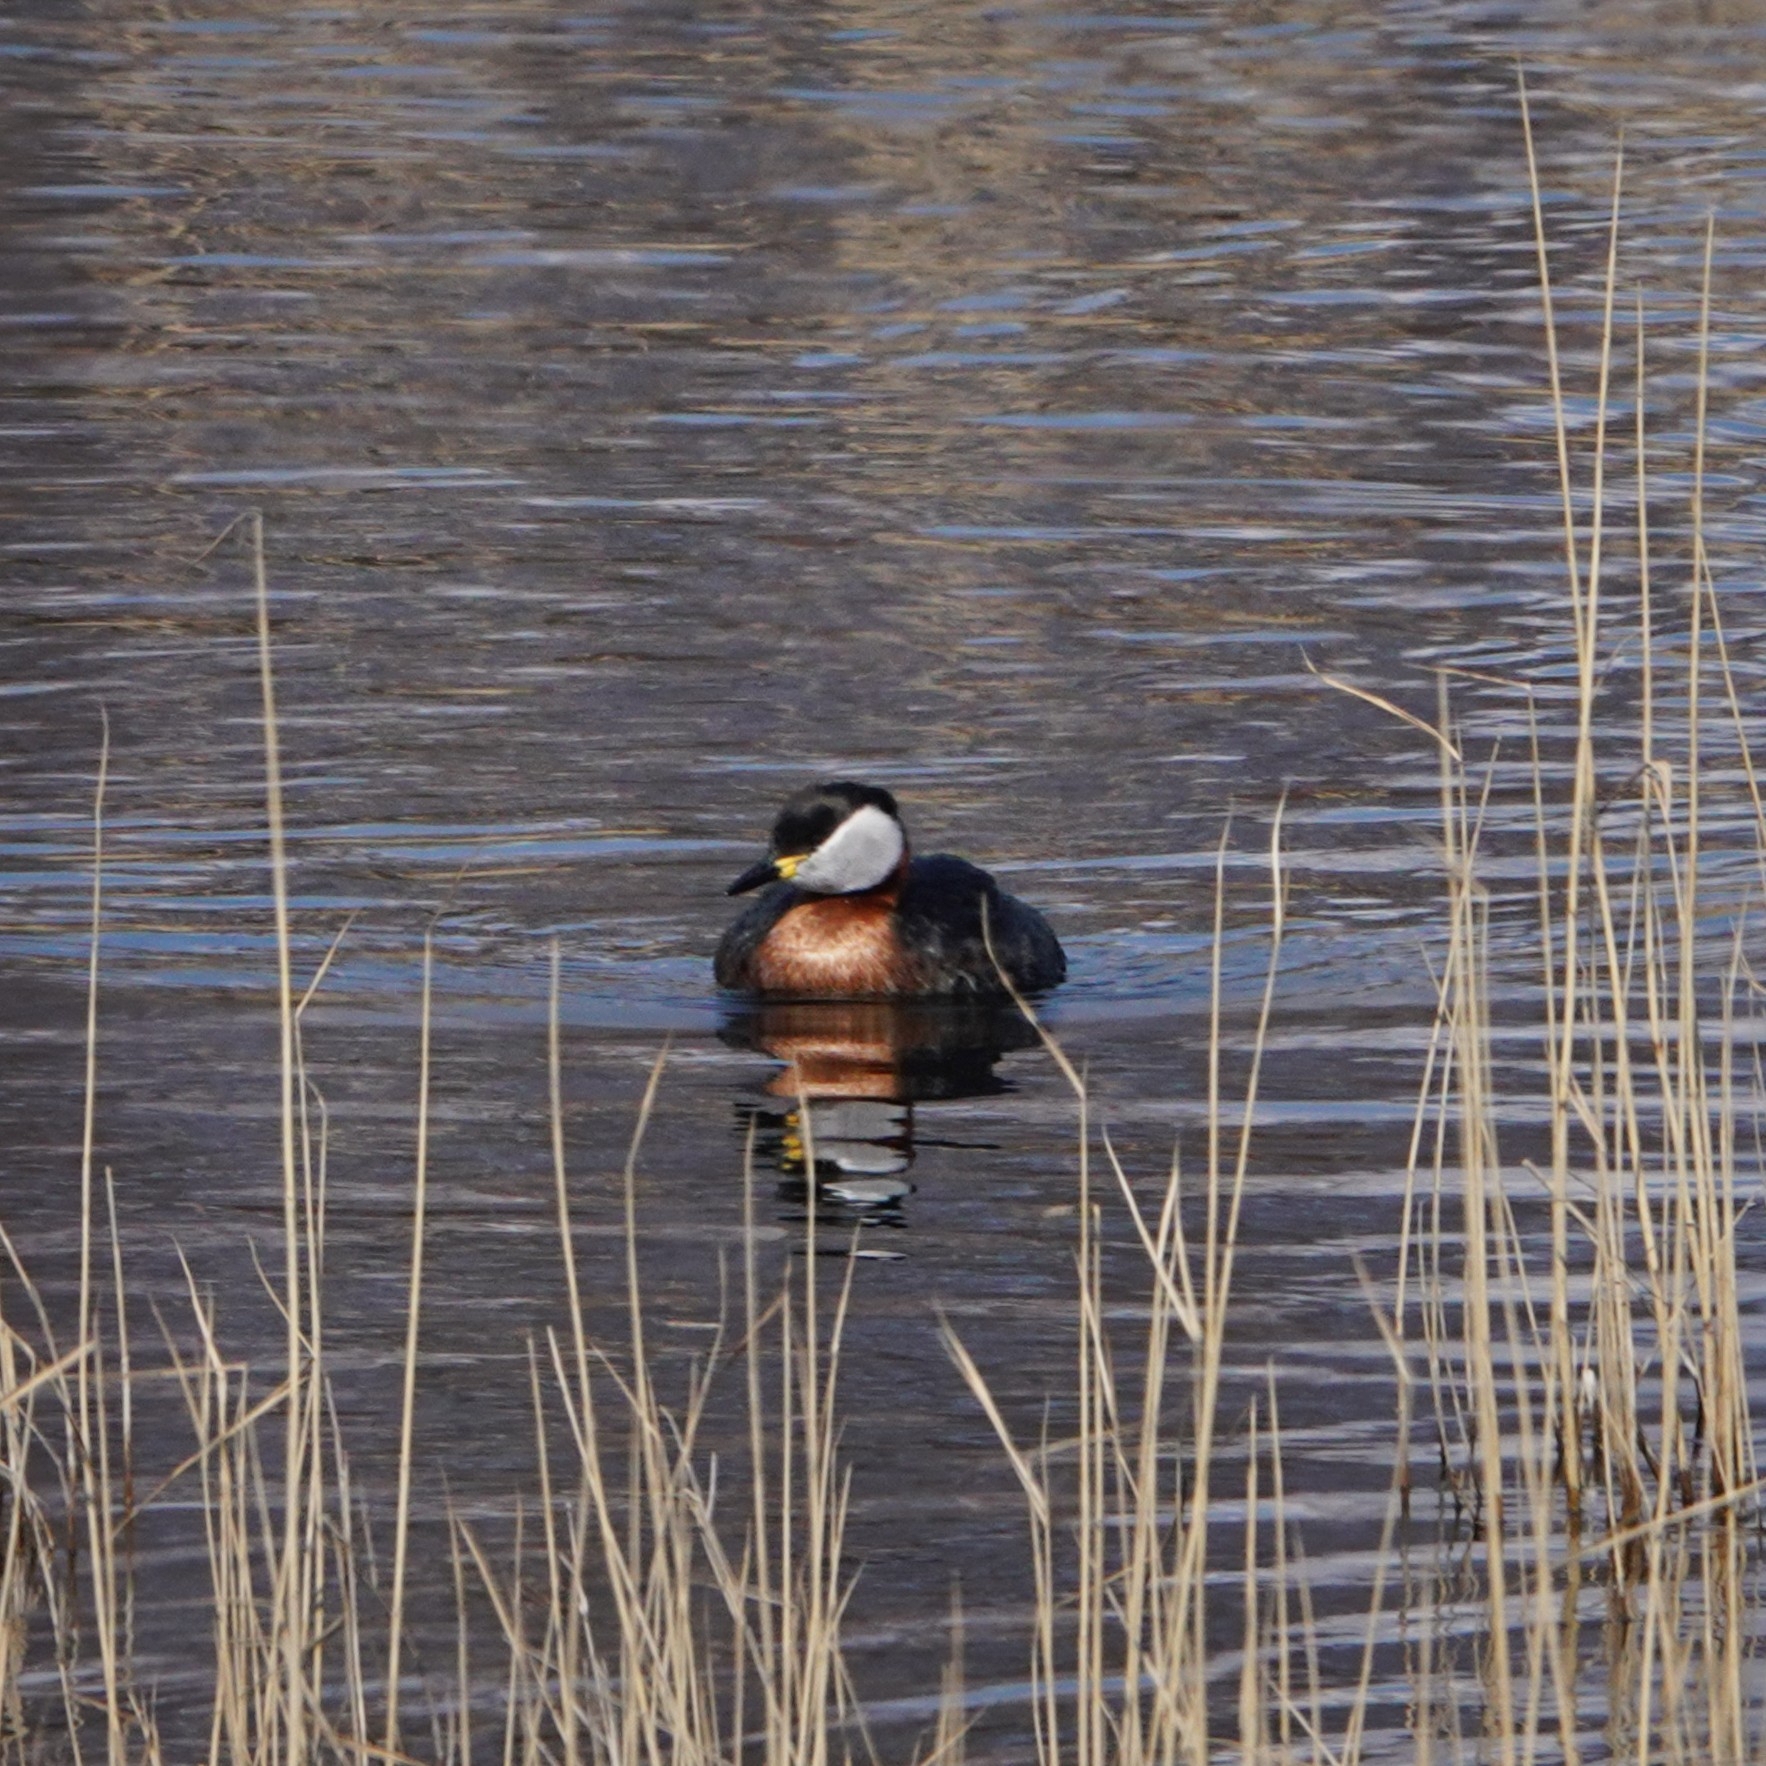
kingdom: Animalia
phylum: Chordata
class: Aves
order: Podicipediformes
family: Podicipedidae
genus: Podiceps
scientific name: Podiceps grisegena
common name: Red-necked grebe
